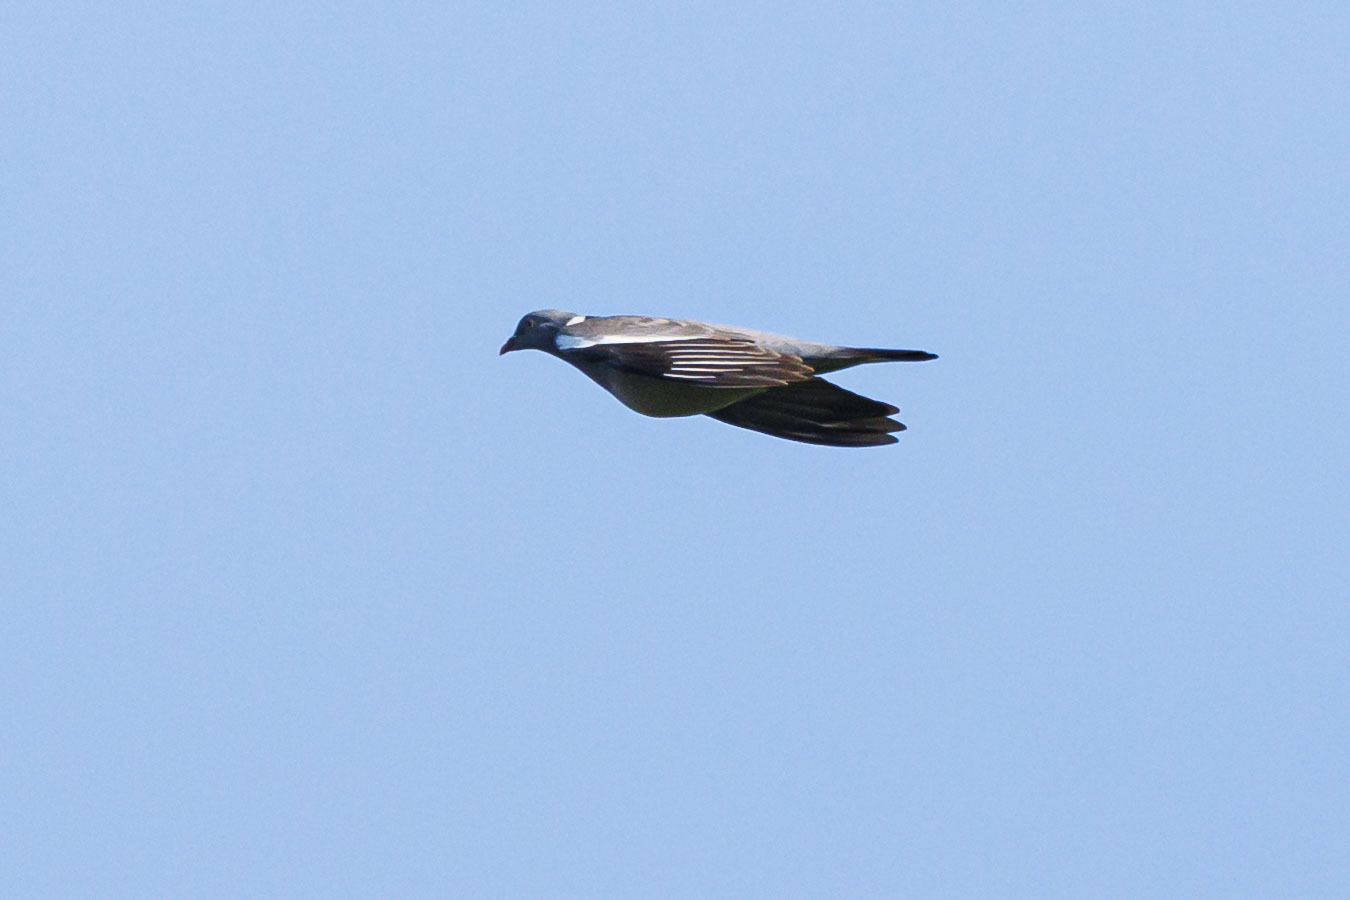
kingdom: Animalia
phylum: Chordata
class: Aves
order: Columbiformes
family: Columbidae
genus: Columba
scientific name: Columba palumbus
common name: Common wood pigeon
